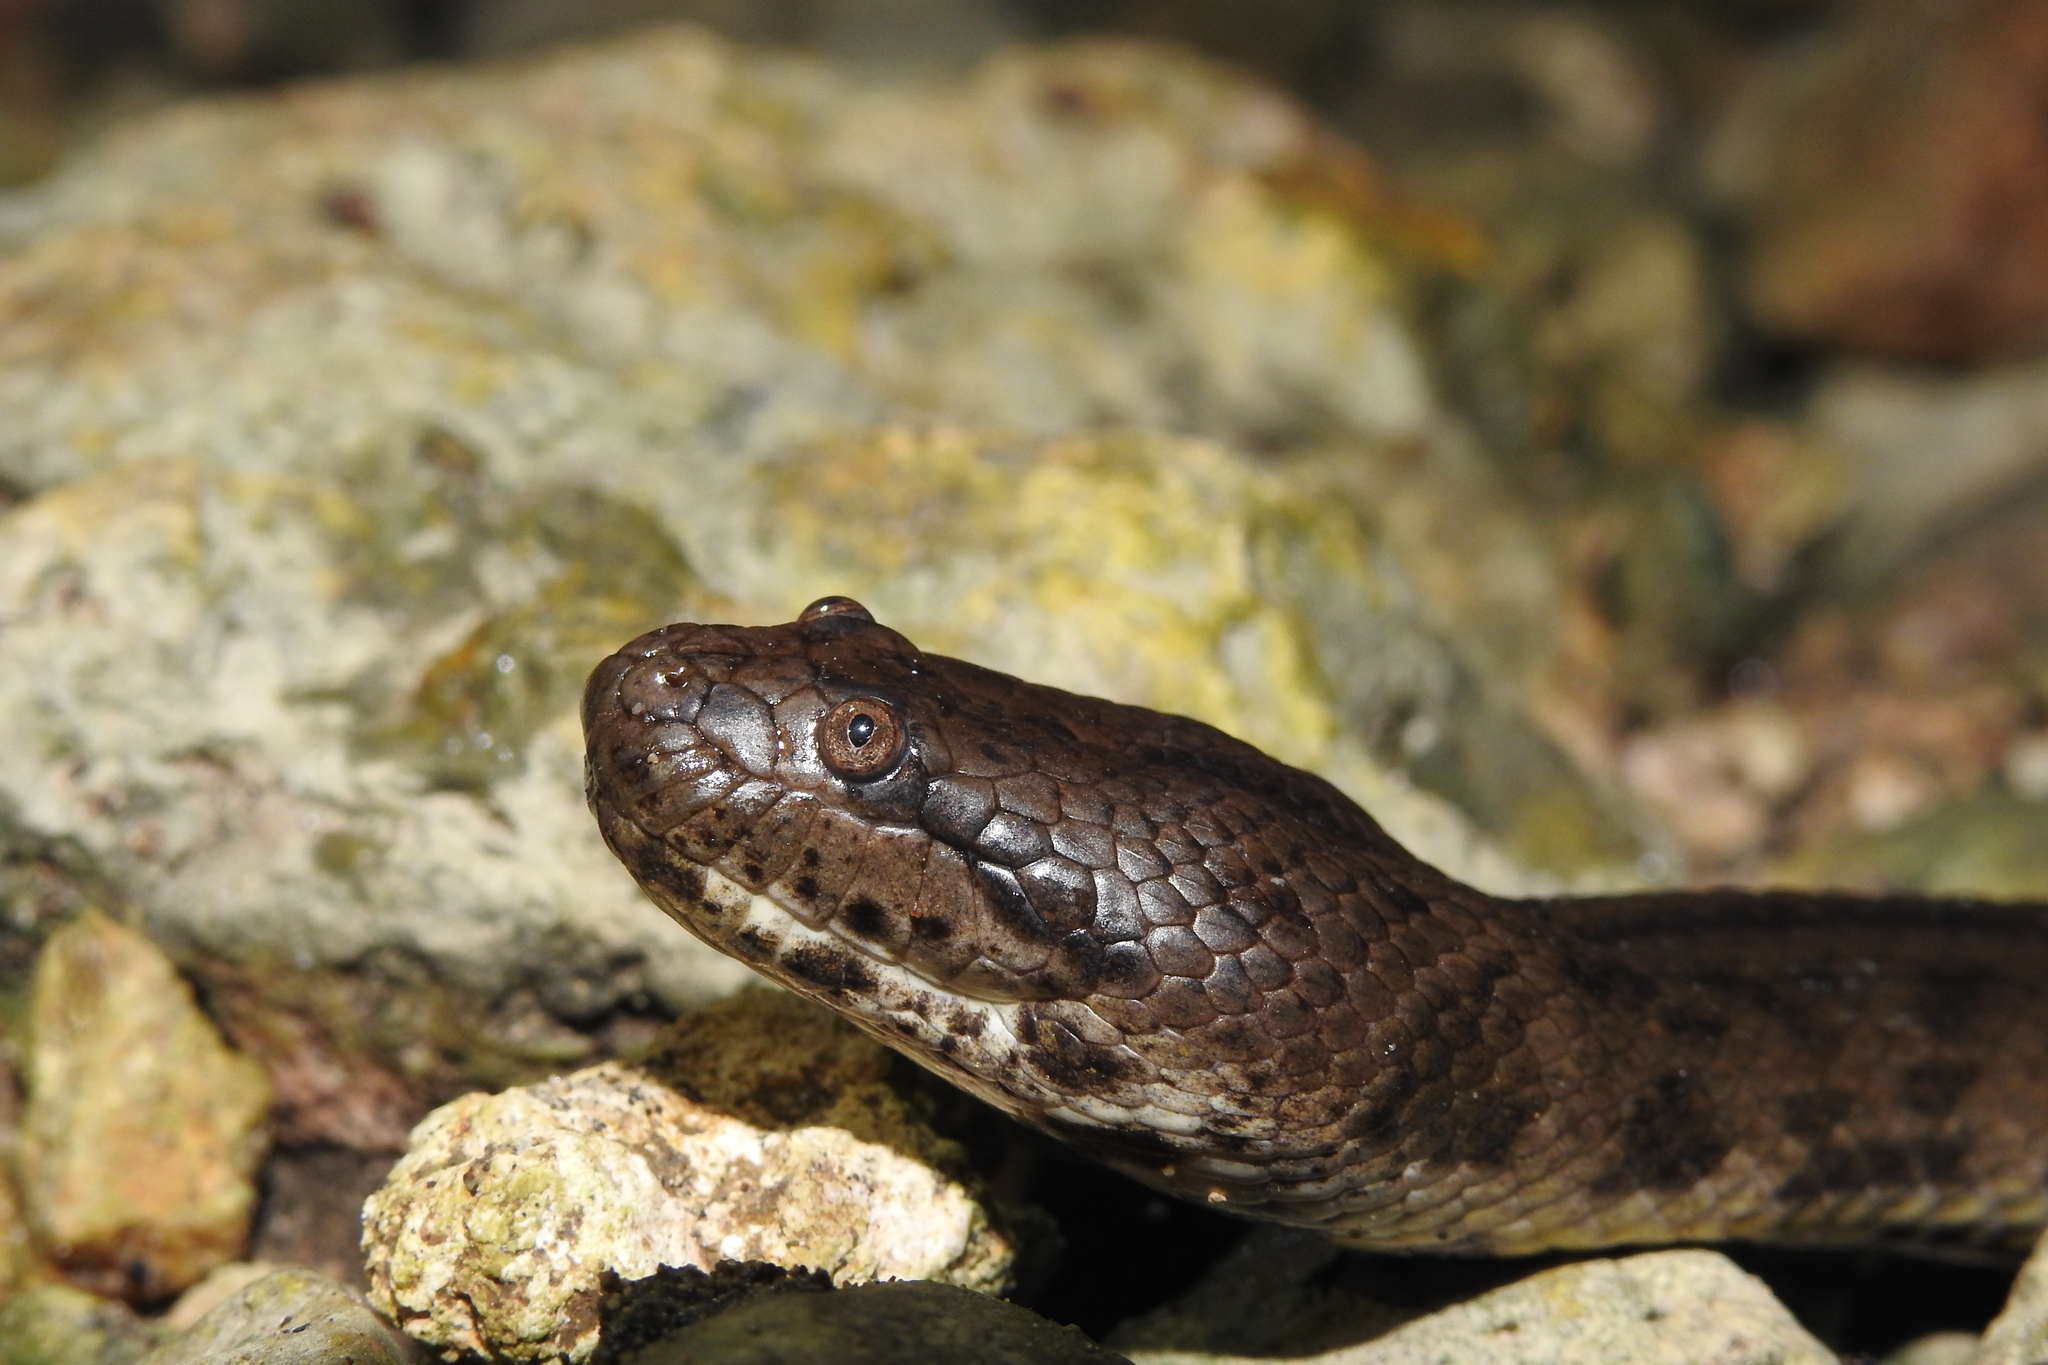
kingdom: Animalia
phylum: Chordata
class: Squamata
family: Homalopsidae
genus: Cerberus
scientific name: Cerberus schneiderii
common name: Southeast asian bockadam
